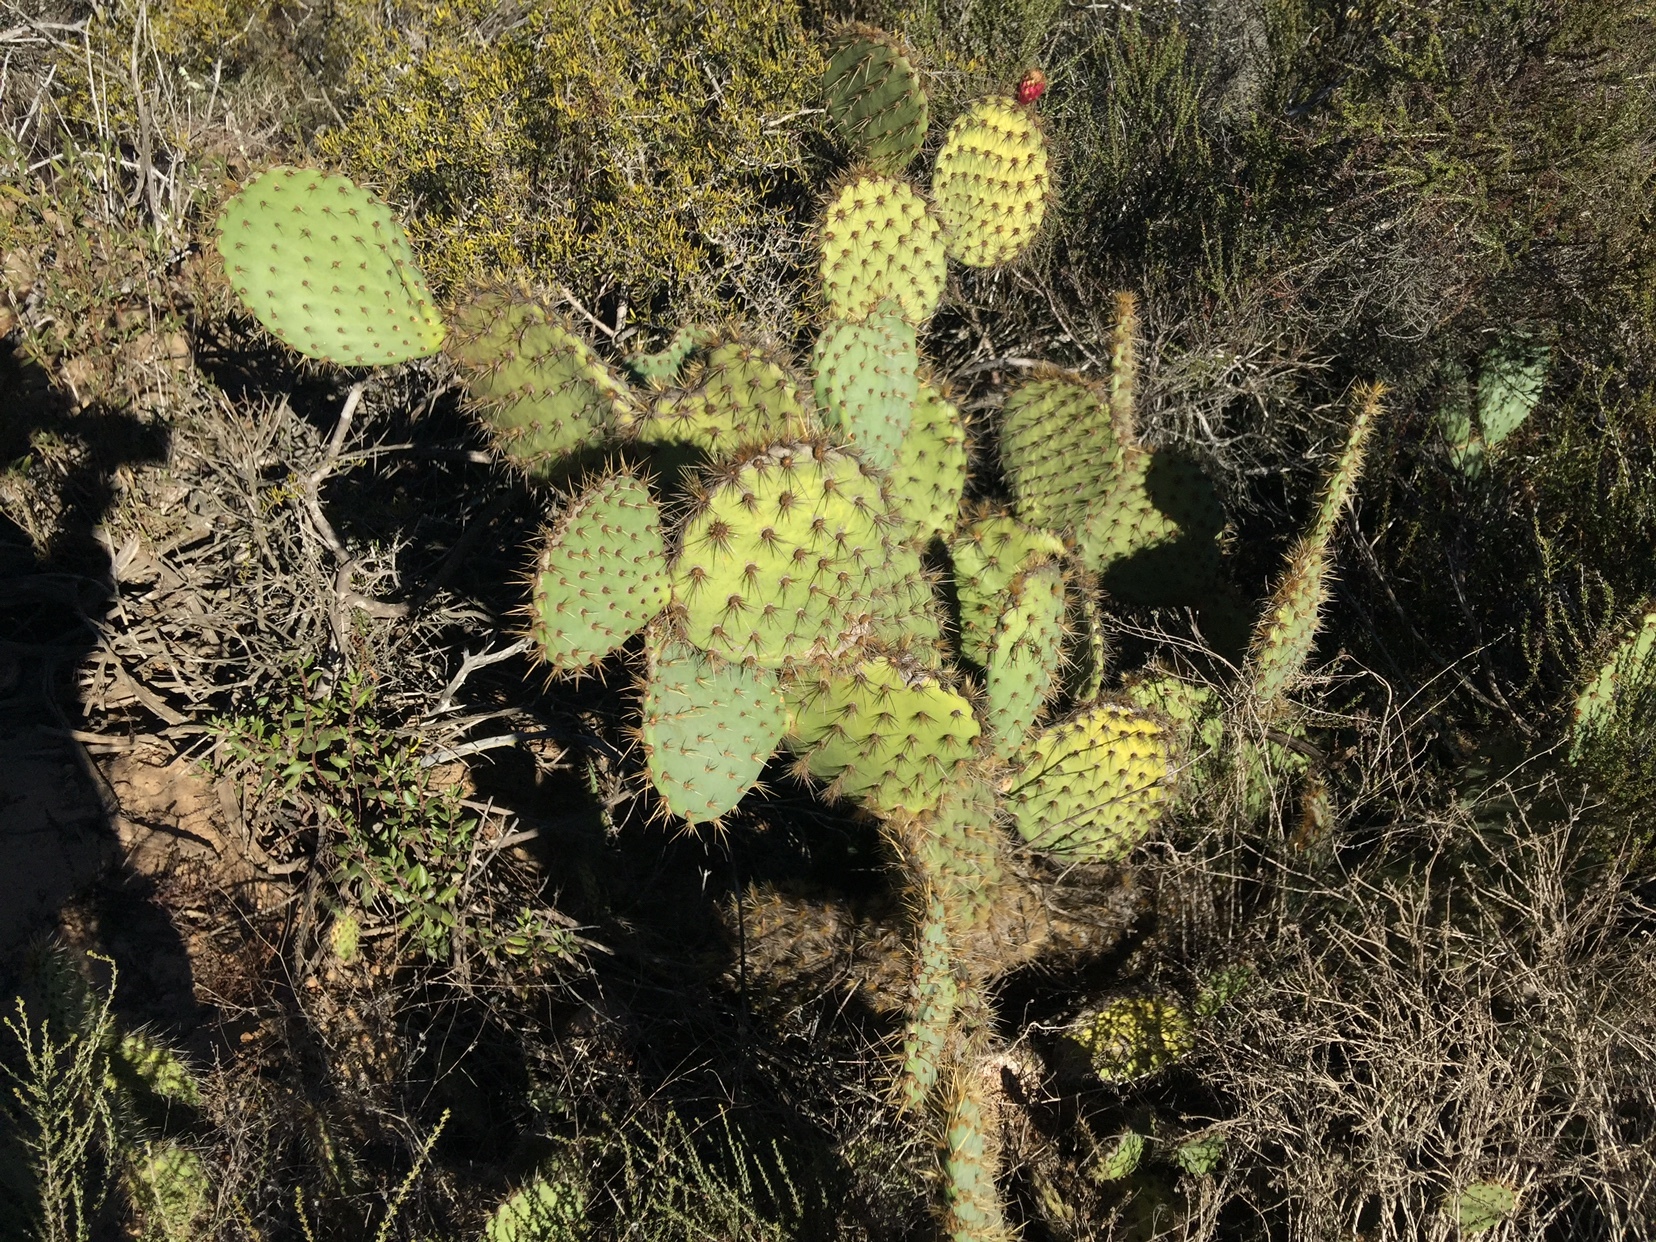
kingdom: Plantae
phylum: Tracheophyta
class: Magnoliopsida
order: Caryophyllales
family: Cactaceae
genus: Opuntia
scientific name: Opuntia oricola
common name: Chaparral prickly-pear
